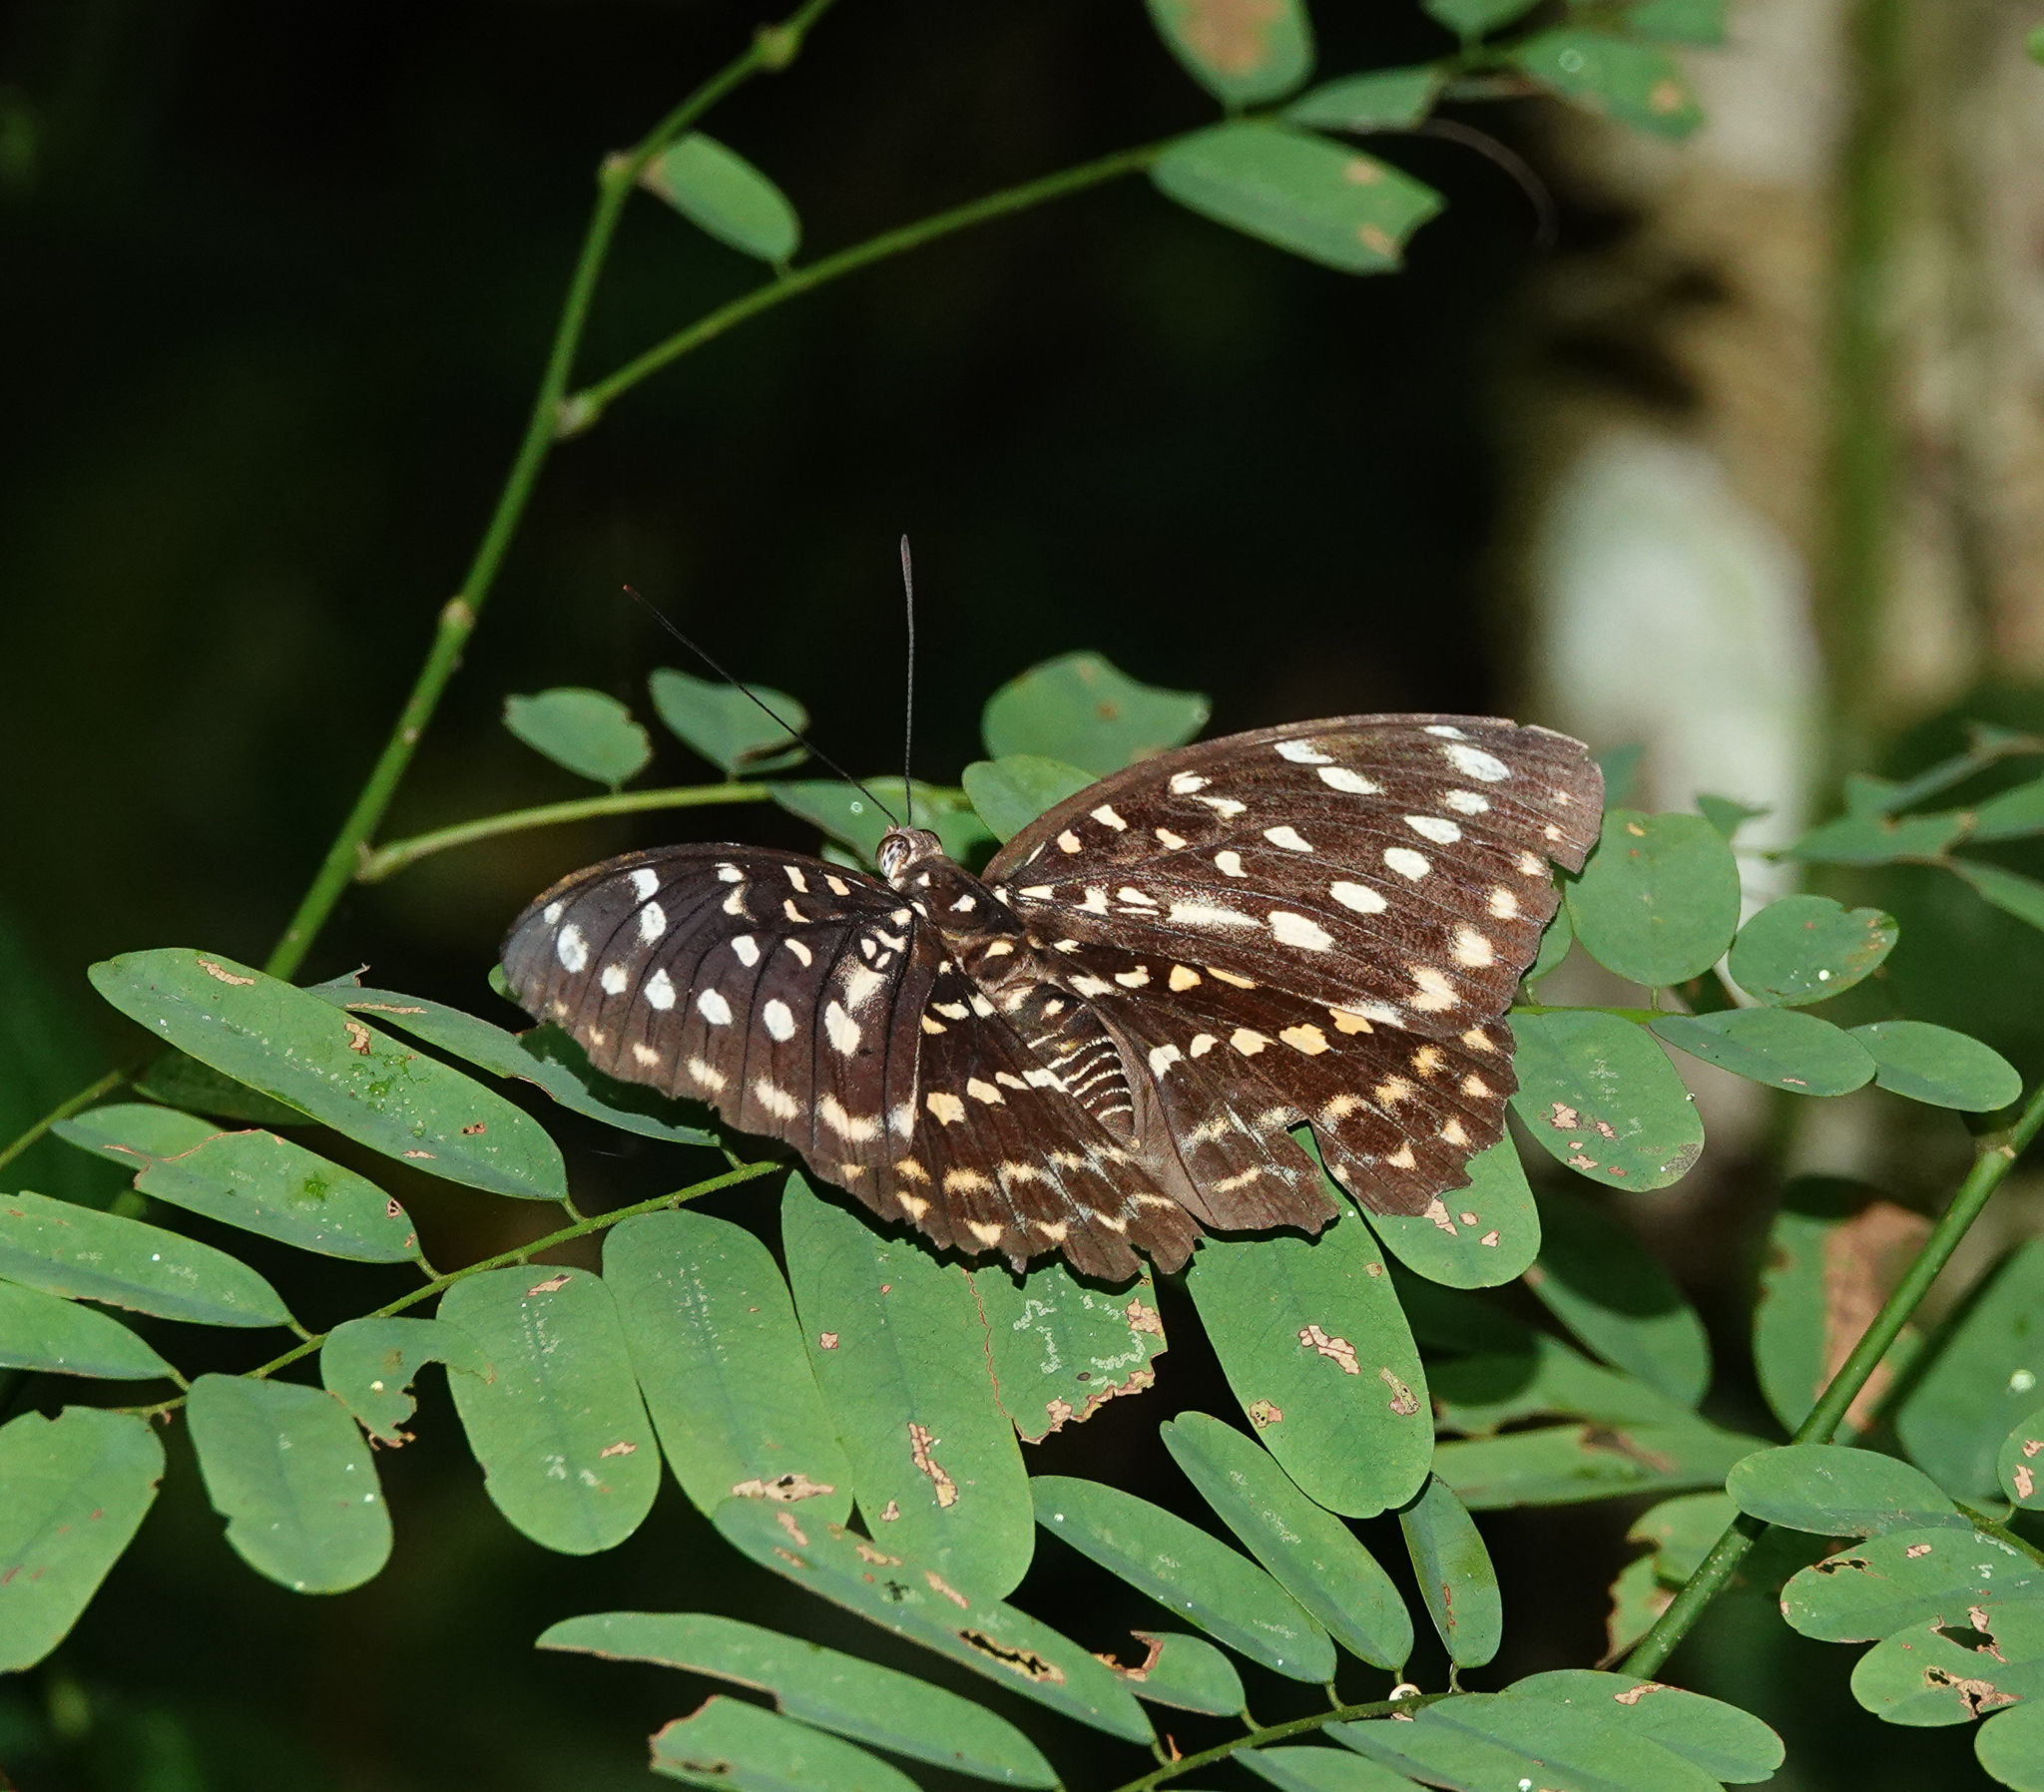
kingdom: Animalia
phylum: Arthropoda
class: Insecta
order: Lepidoptera
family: Nymphalidae
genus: Lexias
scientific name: Lexias pardalis
